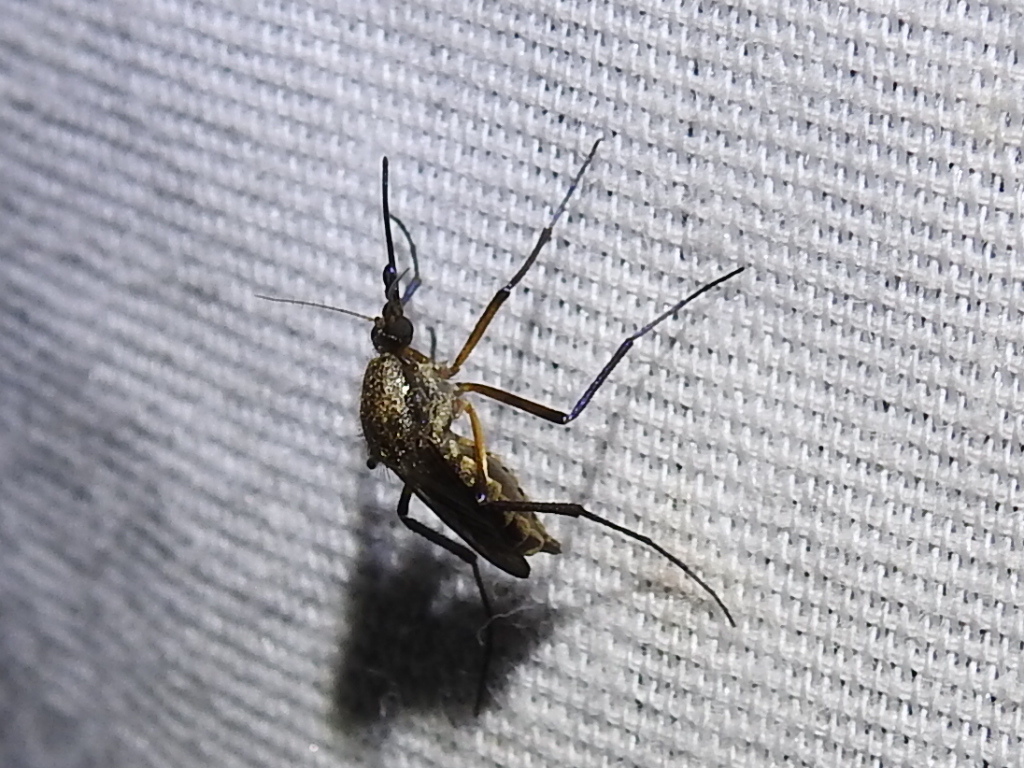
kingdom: Animalia
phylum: Arthropoda
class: Insecta
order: Diptera
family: Culicidae
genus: Psorophora
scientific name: Psorophora cyanescens
